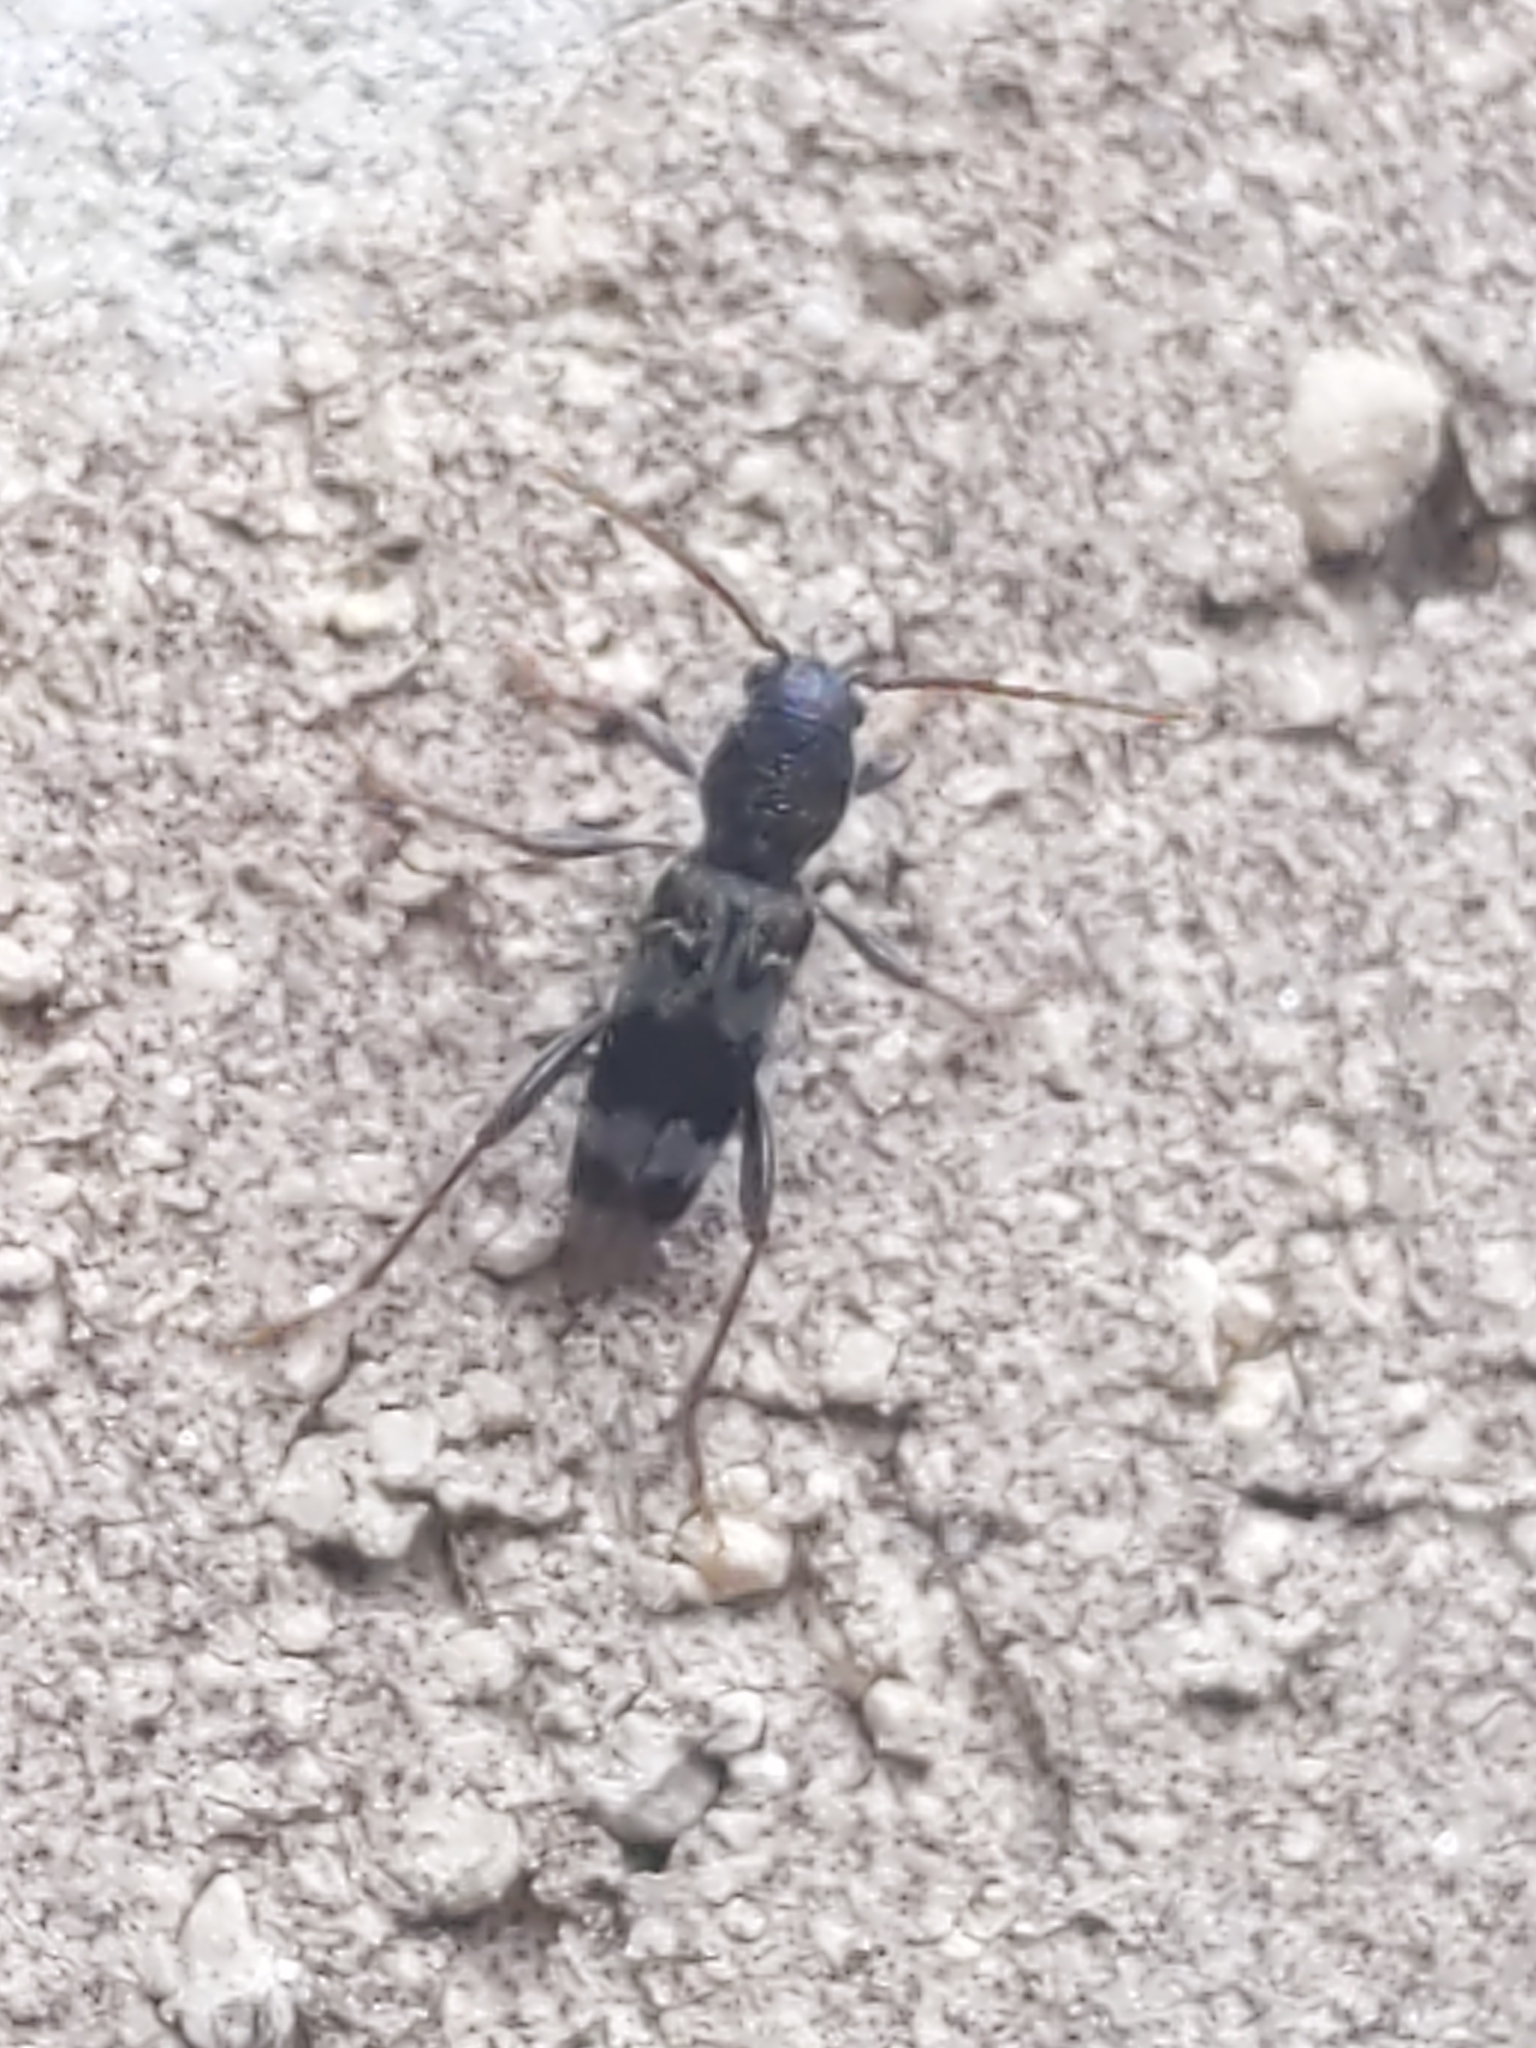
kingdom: Animalia
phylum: Arthropoda
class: Insecta
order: Coleoptera
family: Cerambycidae
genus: Xylotrechus
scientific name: Xylotrechus colonus
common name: Long-horned beetle
